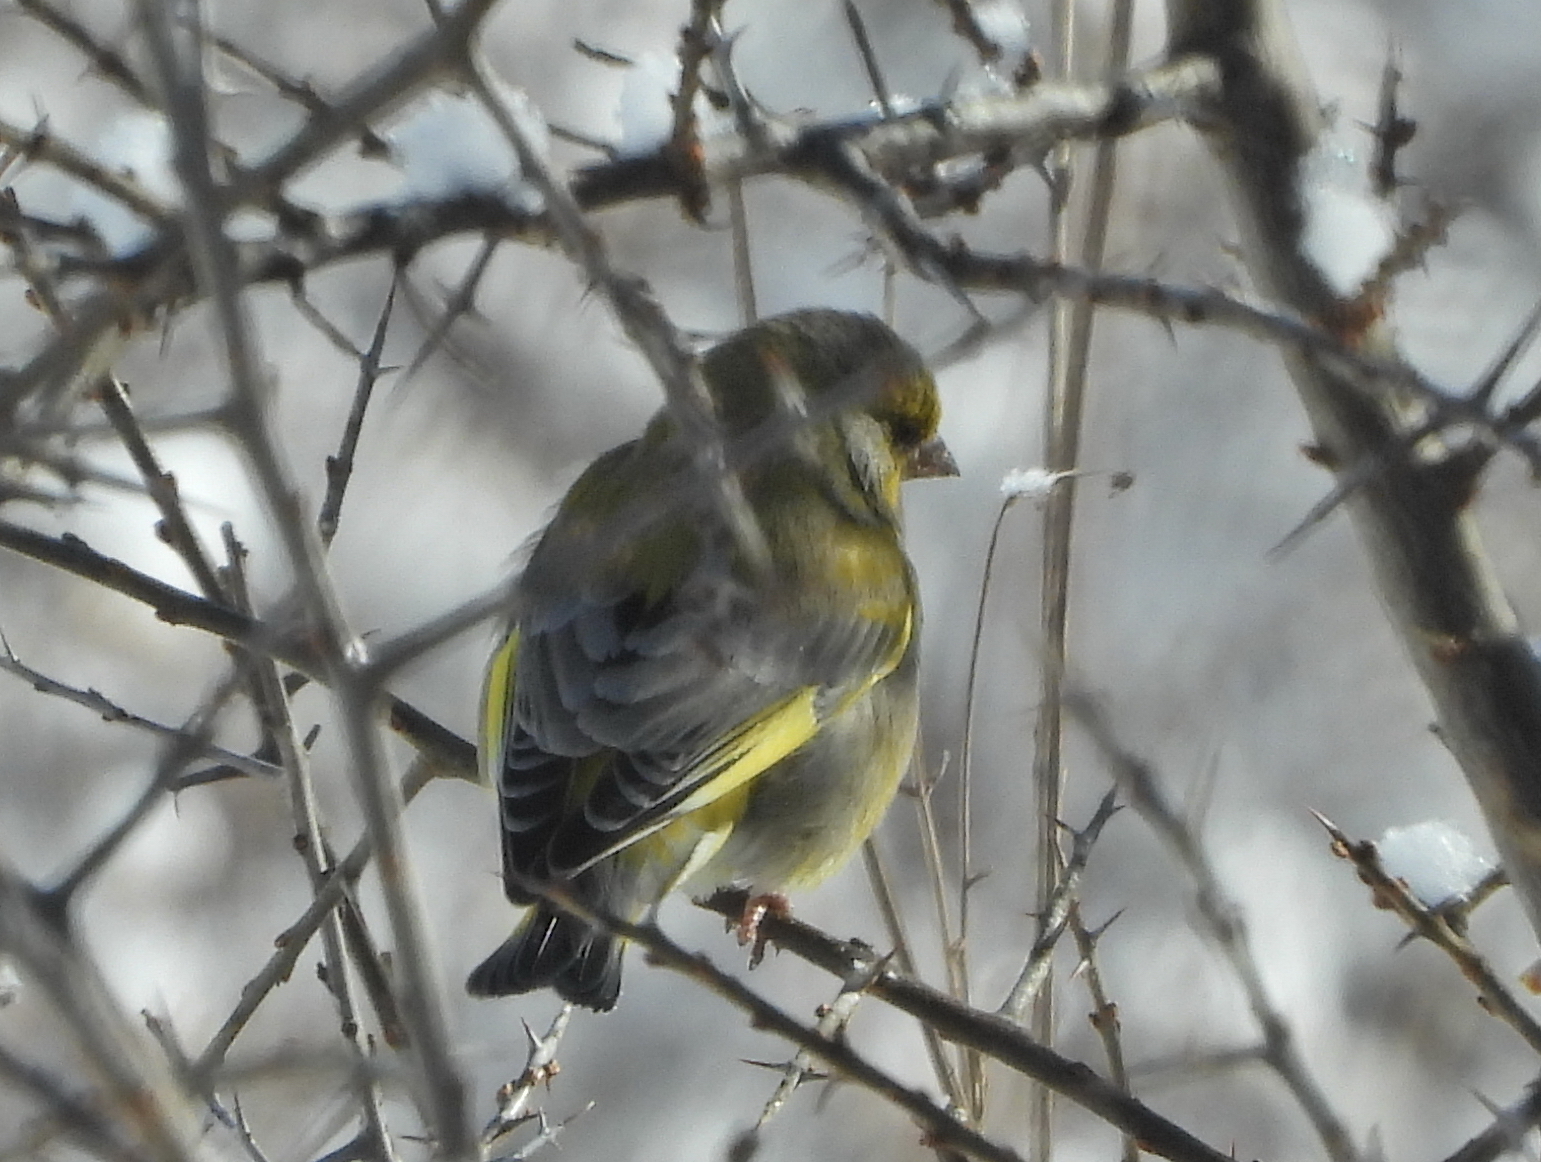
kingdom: Plantae
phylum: Tracheophyta
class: Liliopsida
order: Poales
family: Poaceae
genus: Chloris
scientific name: Chloris chloris
